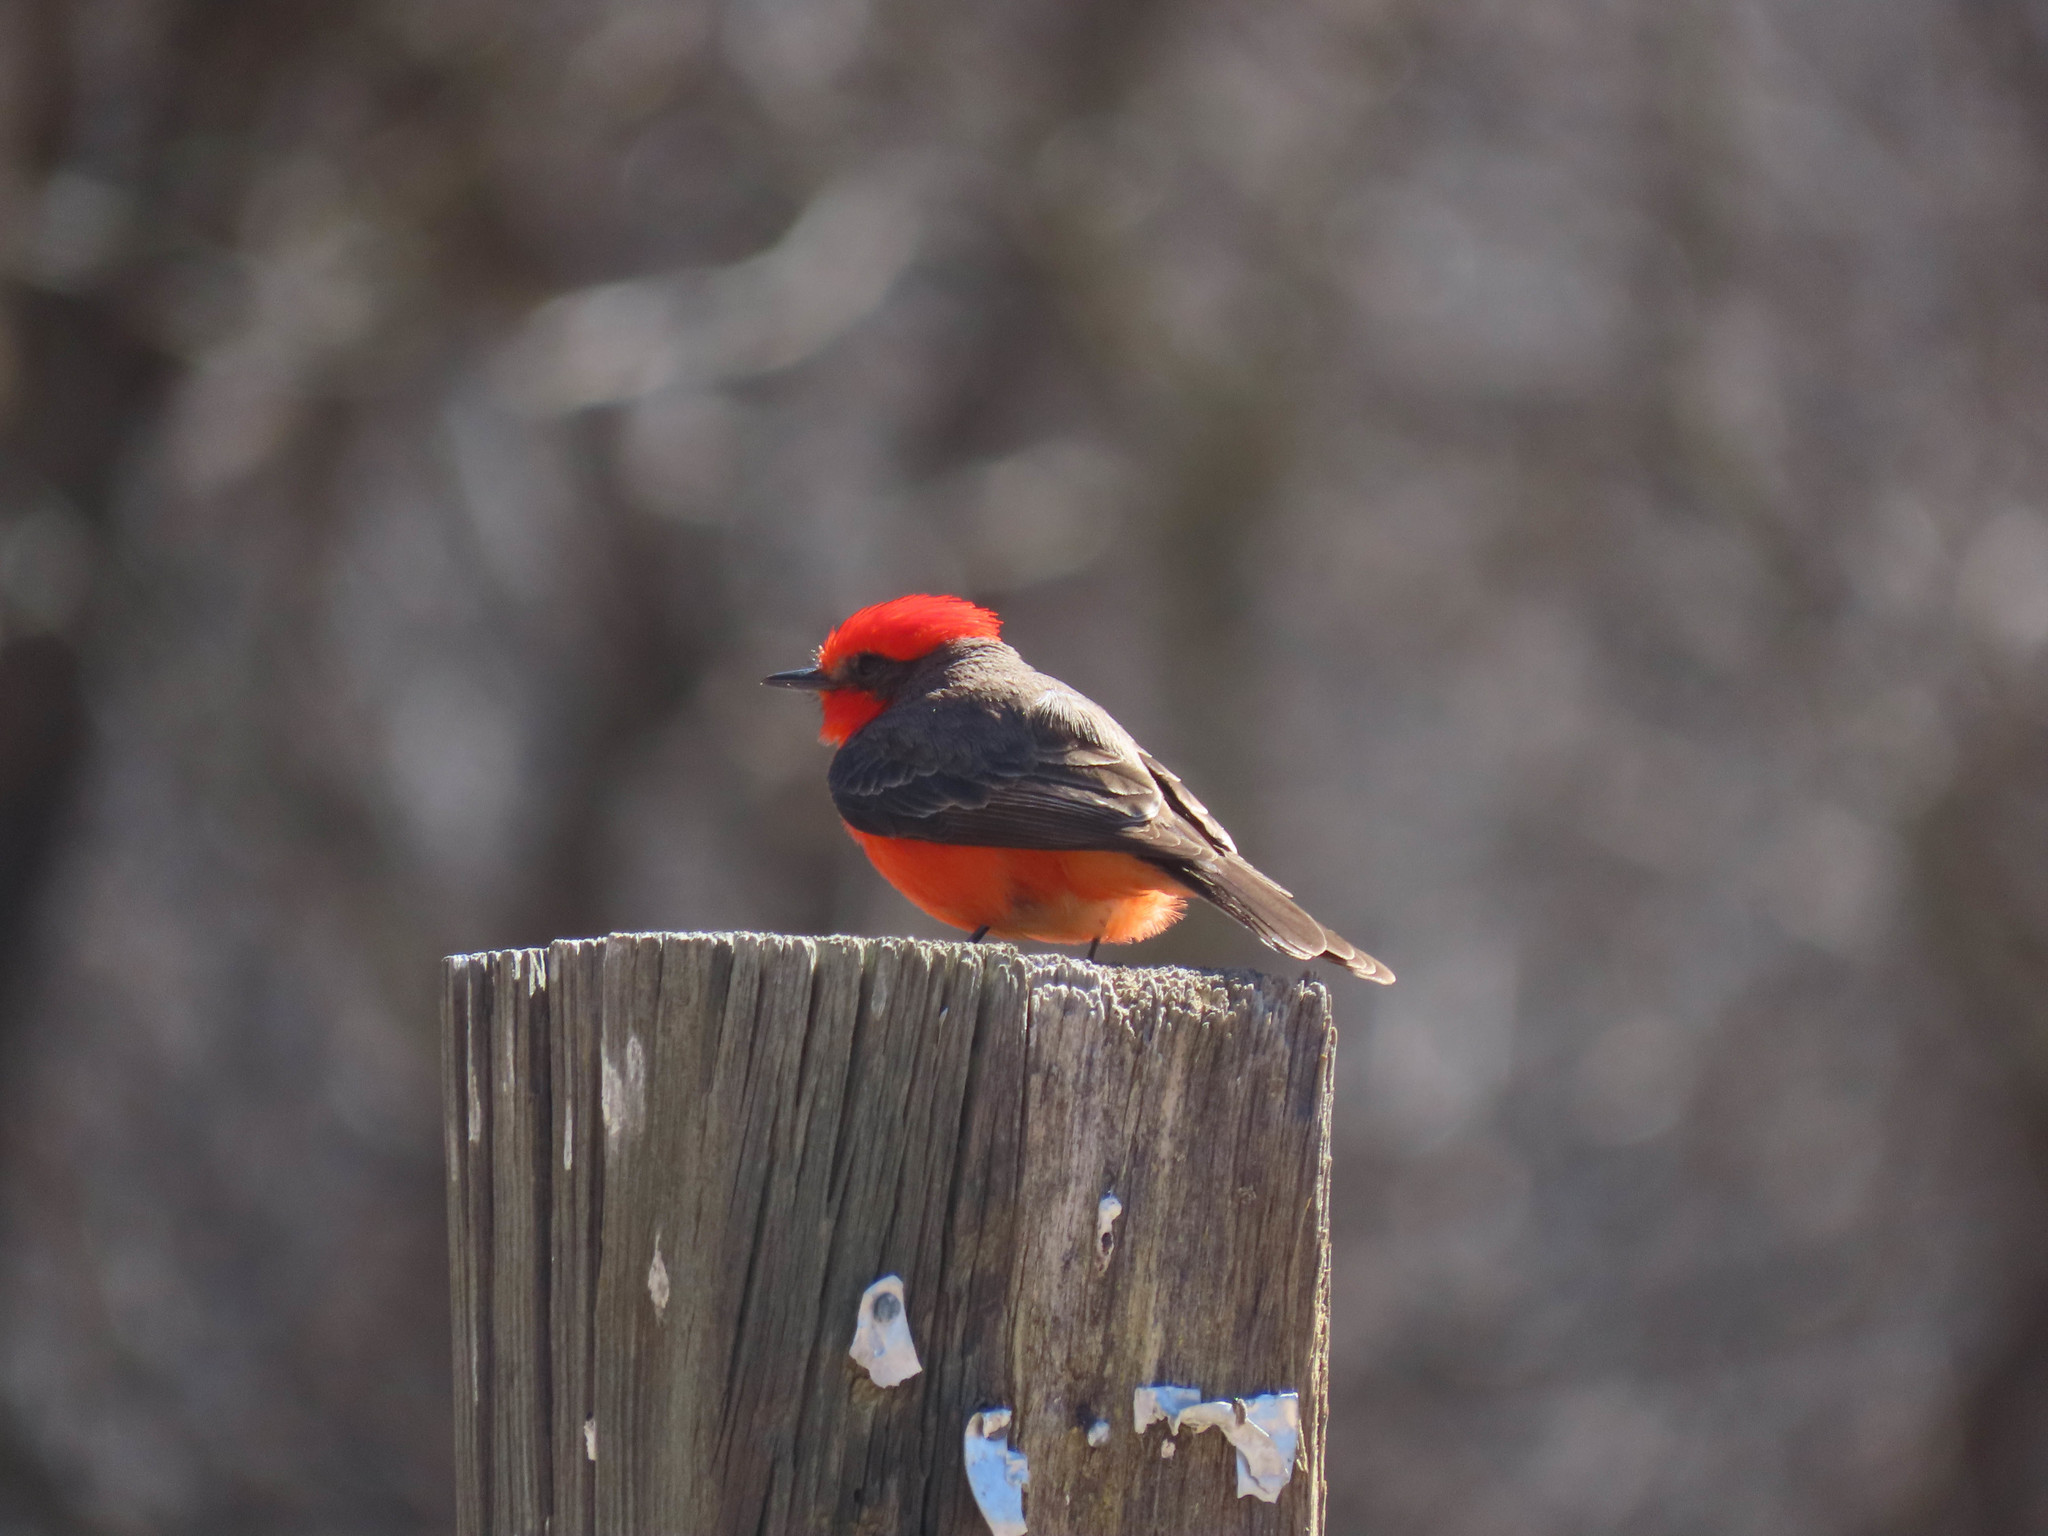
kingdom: Animalia
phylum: Chordata
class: Aves
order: Passeriformes
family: Tyrannidae
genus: Pyrocephalus
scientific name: Pyrocephalus rubinus
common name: Vermilion flycatcher
